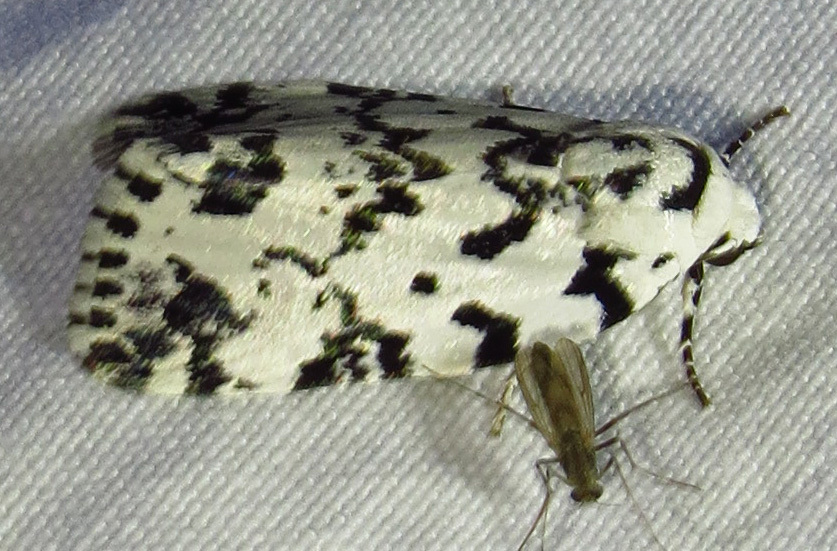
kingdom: Animalia
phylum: Arthropoda
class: Insecta
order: Lepidoptera
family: Noctuidae
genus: Polygrammate
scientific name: Polygrammate hebraeicum
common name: Hebrew moth
